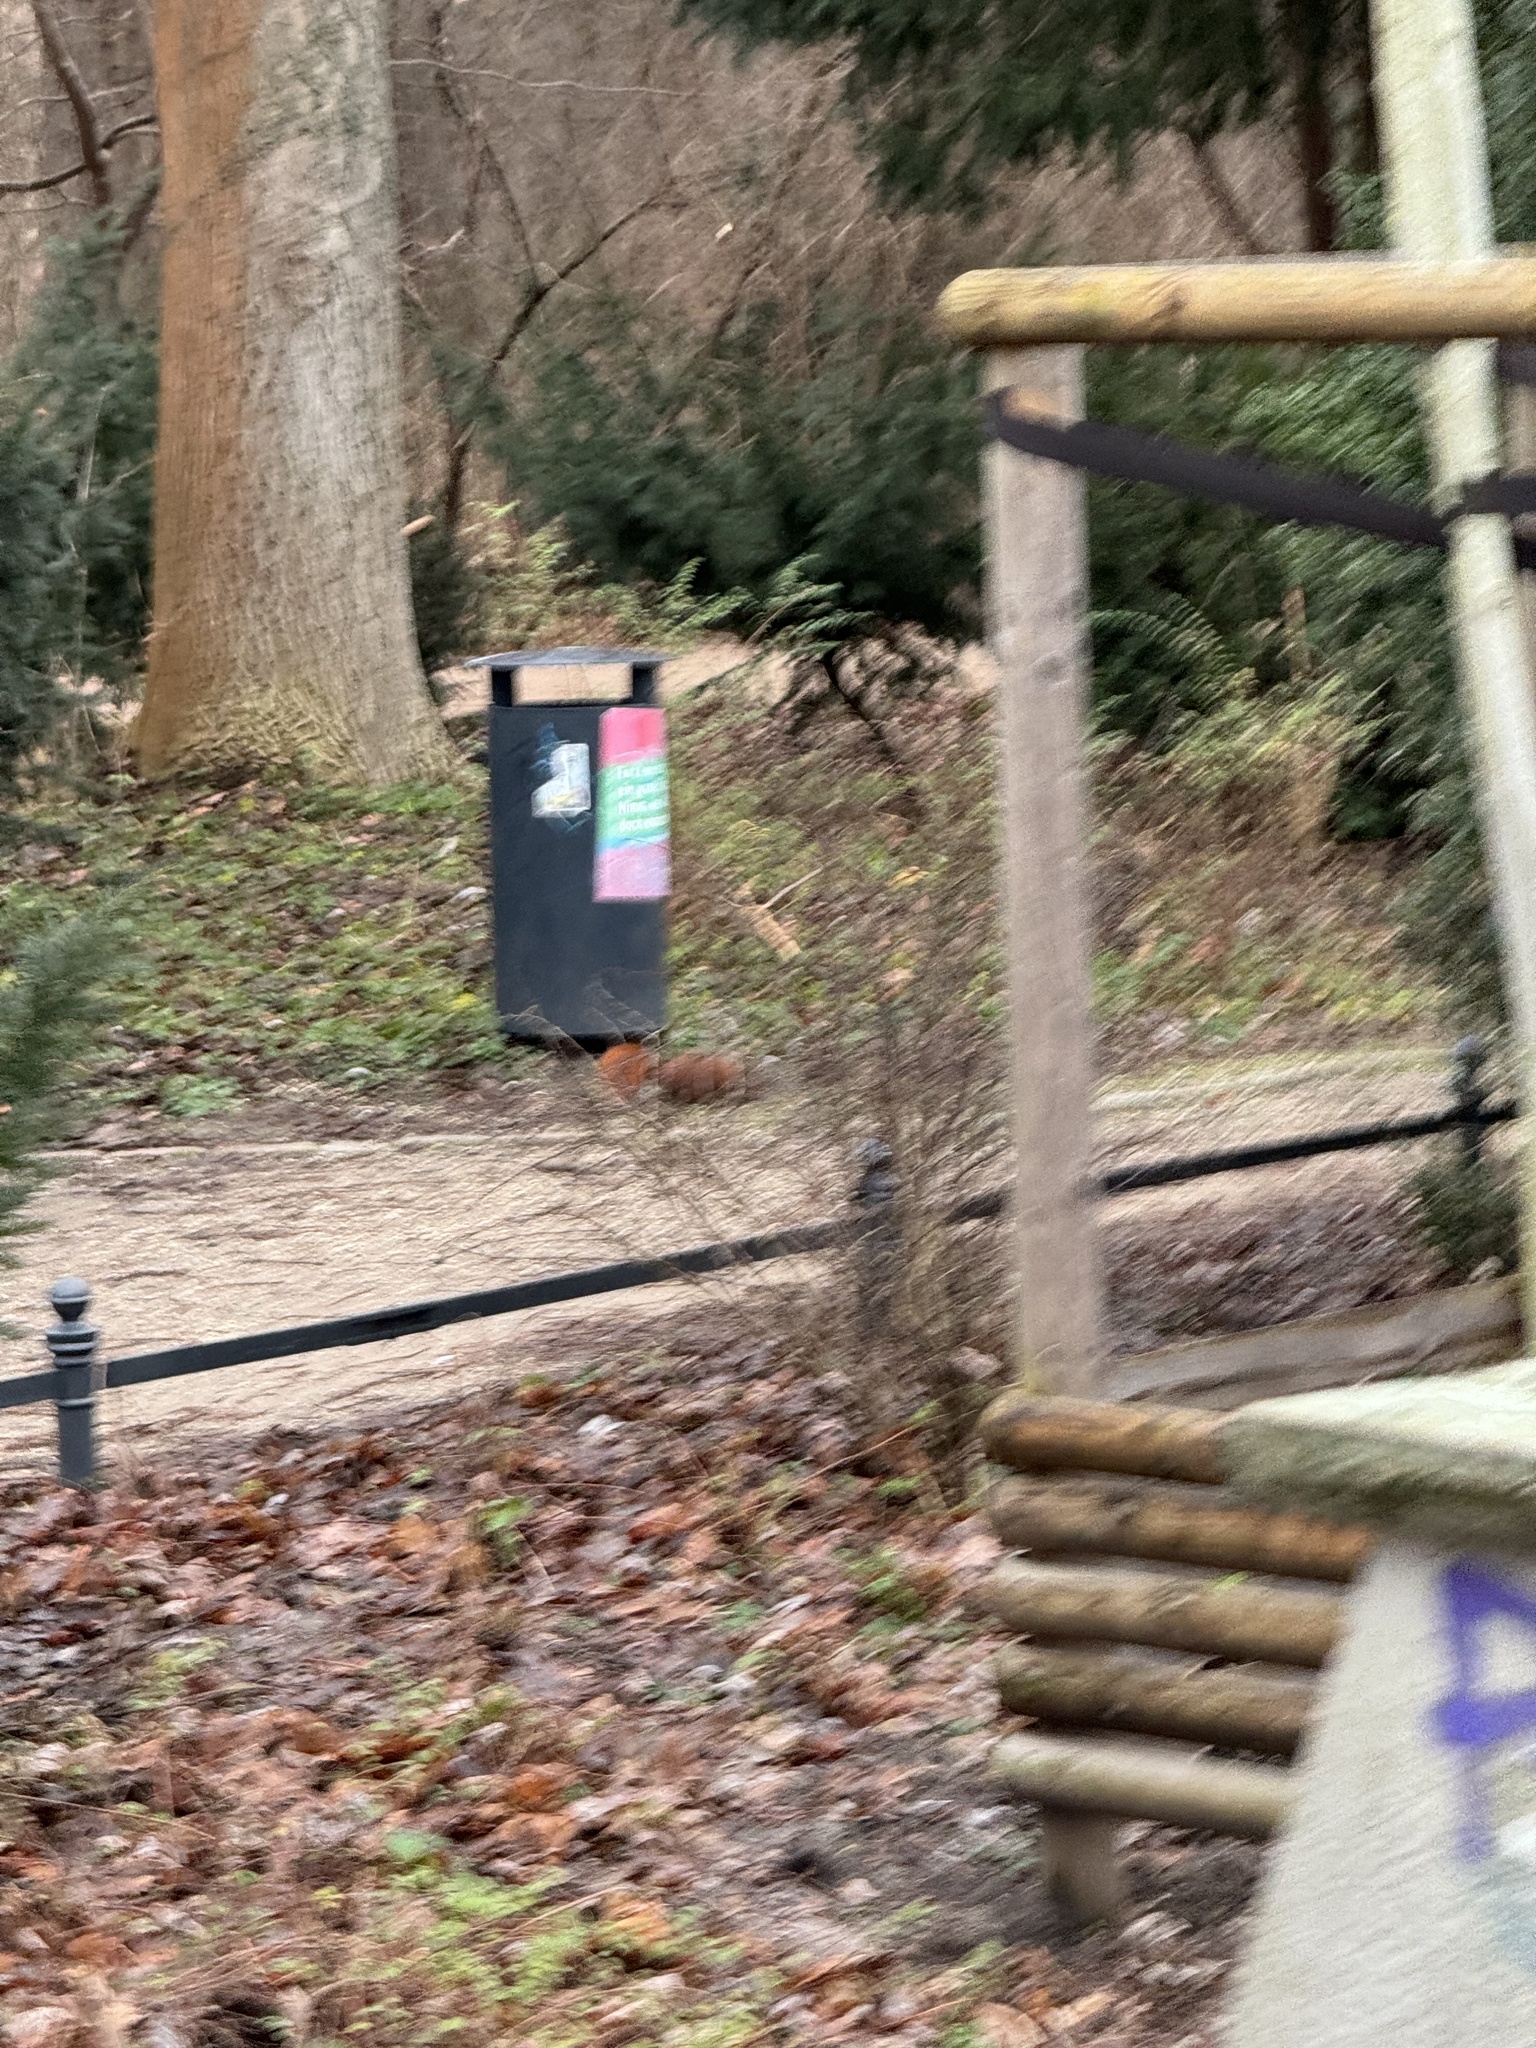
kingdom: Animalia
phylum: Chordata
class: Mammalia
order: Rodentia
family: Sciuridae
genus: Sciurus
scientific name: Sciurus vulgaris
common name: Eurasian red squirrel
